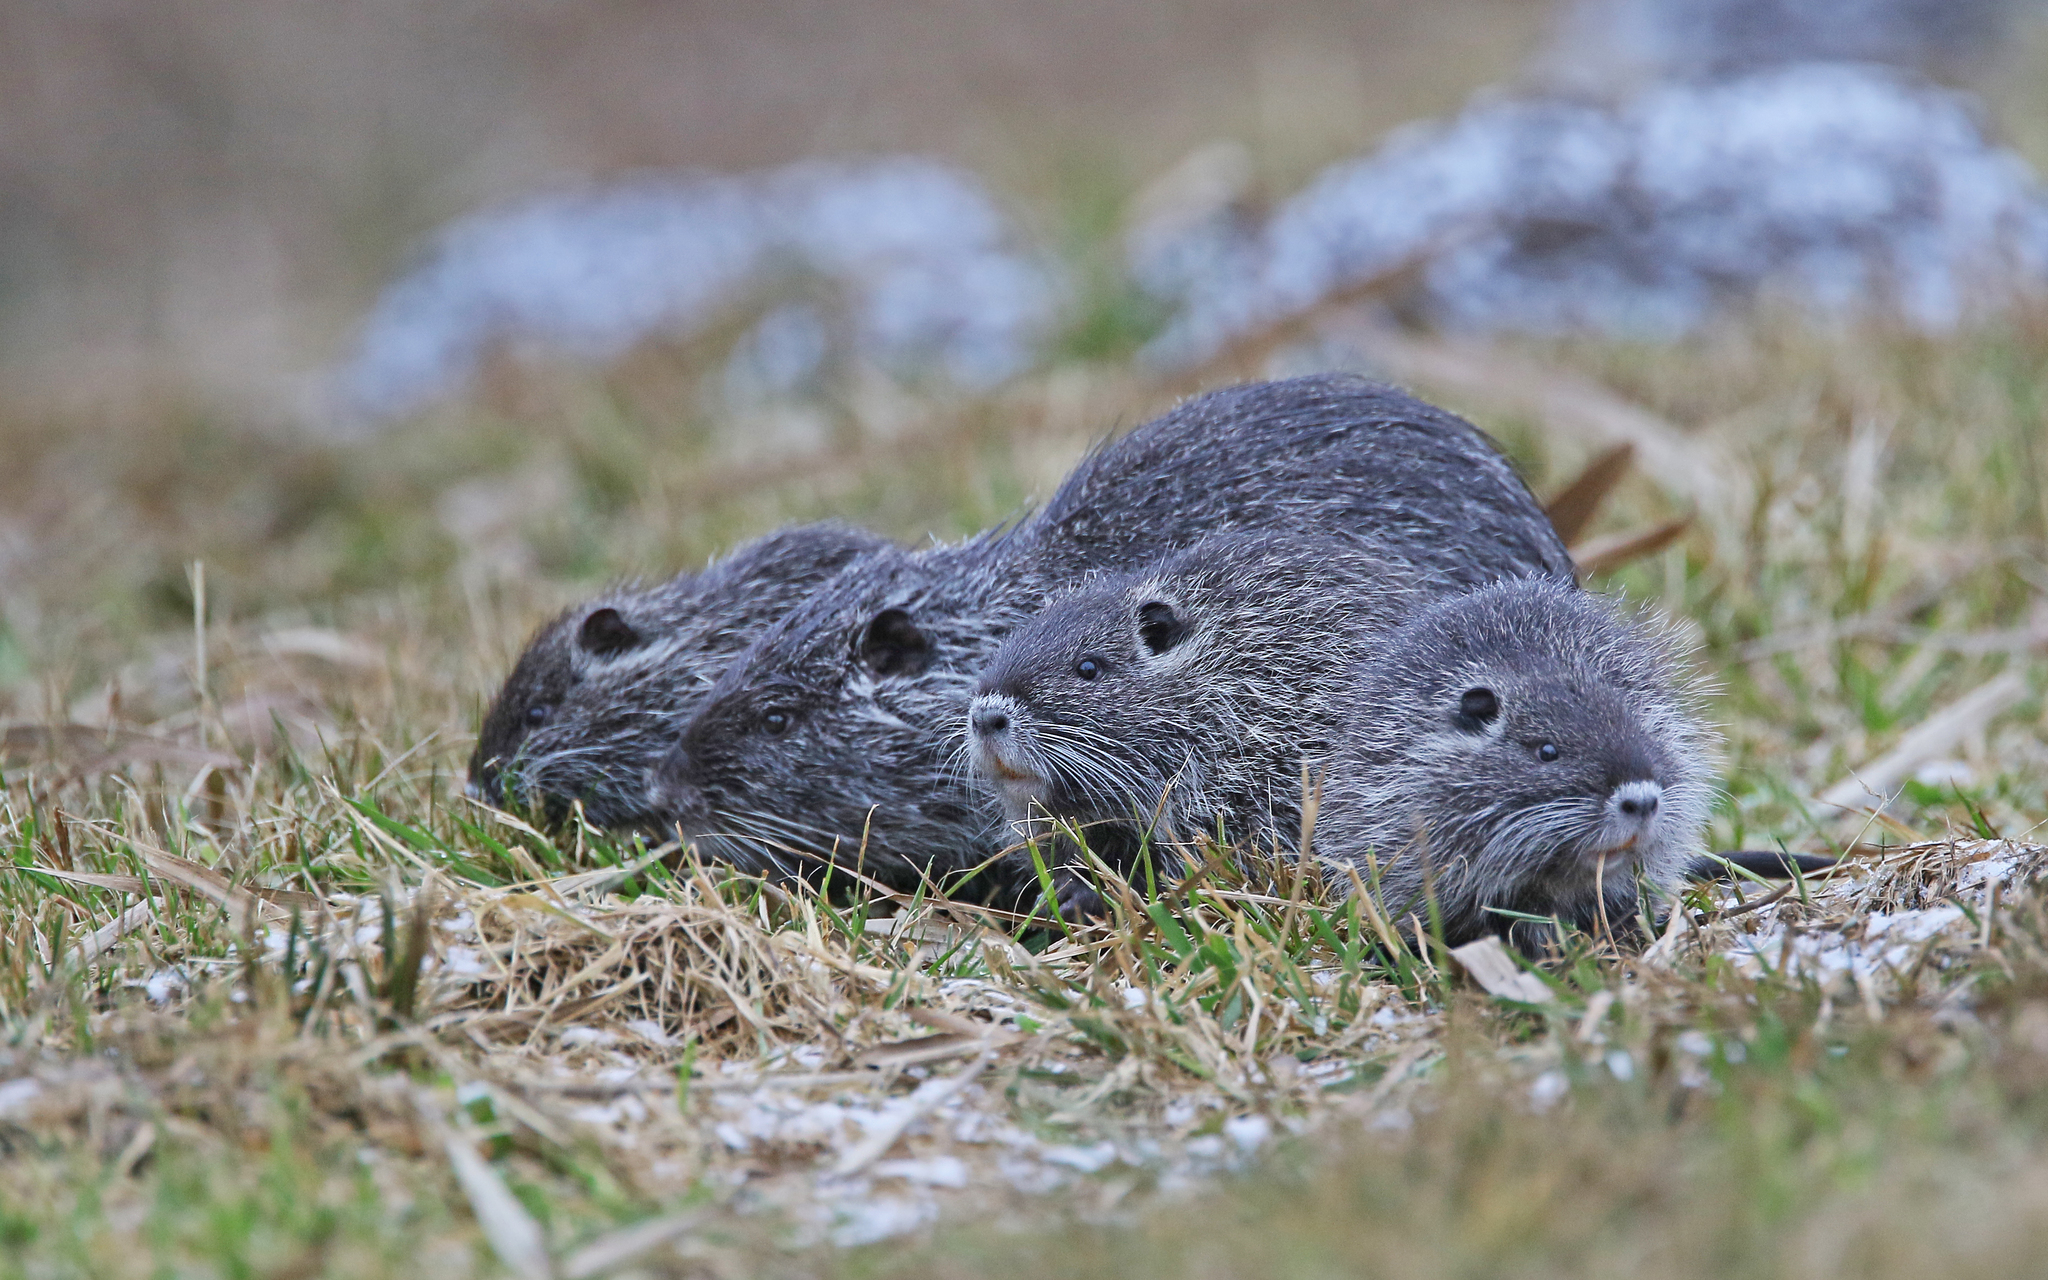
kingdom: Animalia
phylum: Chordata
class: Mammalia
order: Rodentia
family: Myocastoridae
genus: Myocastor
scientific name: Myocastor coypus
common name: Coypu
